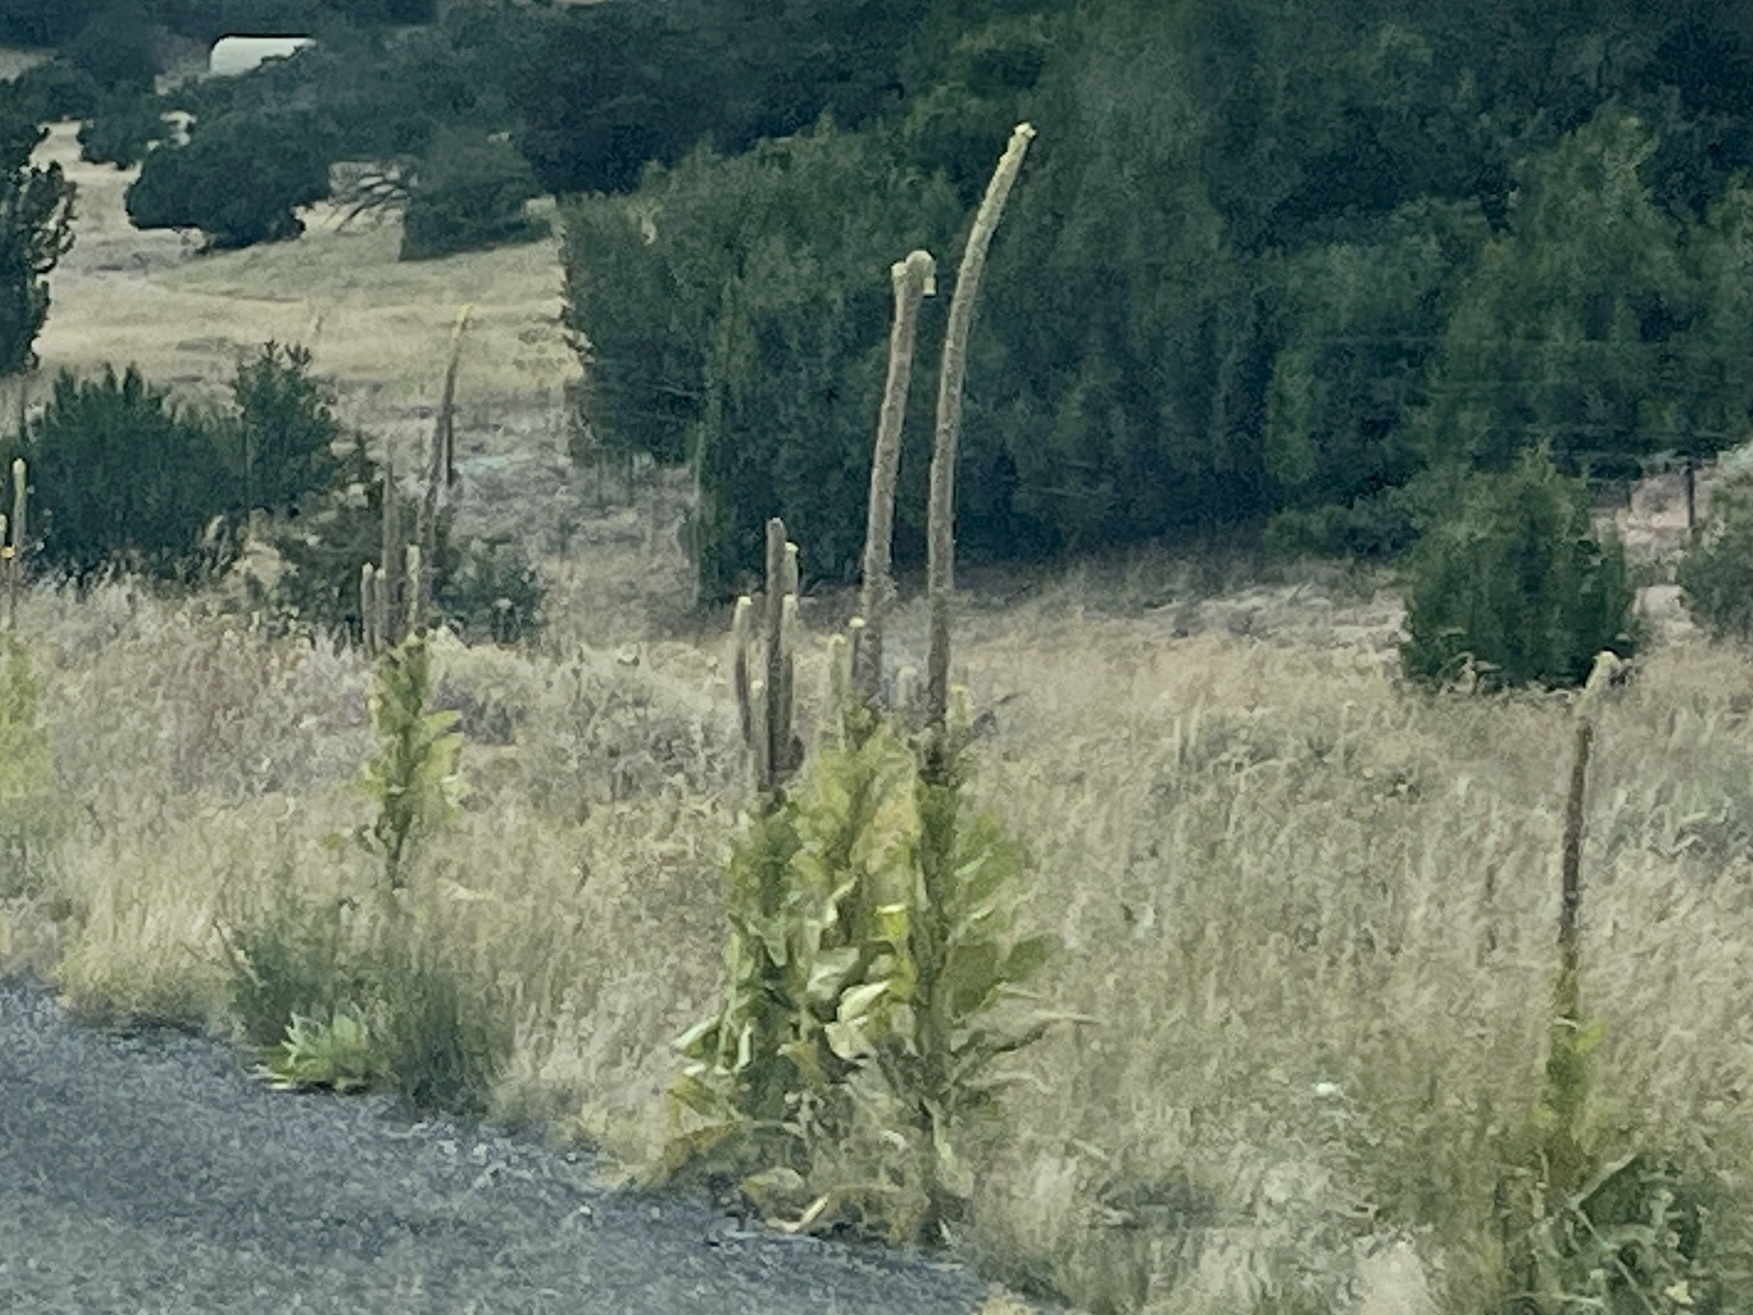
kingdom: Plantae
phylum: Tracheophyta
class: Magnoliopsida
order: Lamiales
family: Scrophulariaceae
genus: Verbascum
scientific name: Verbascum thapsus
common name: Common mullein
